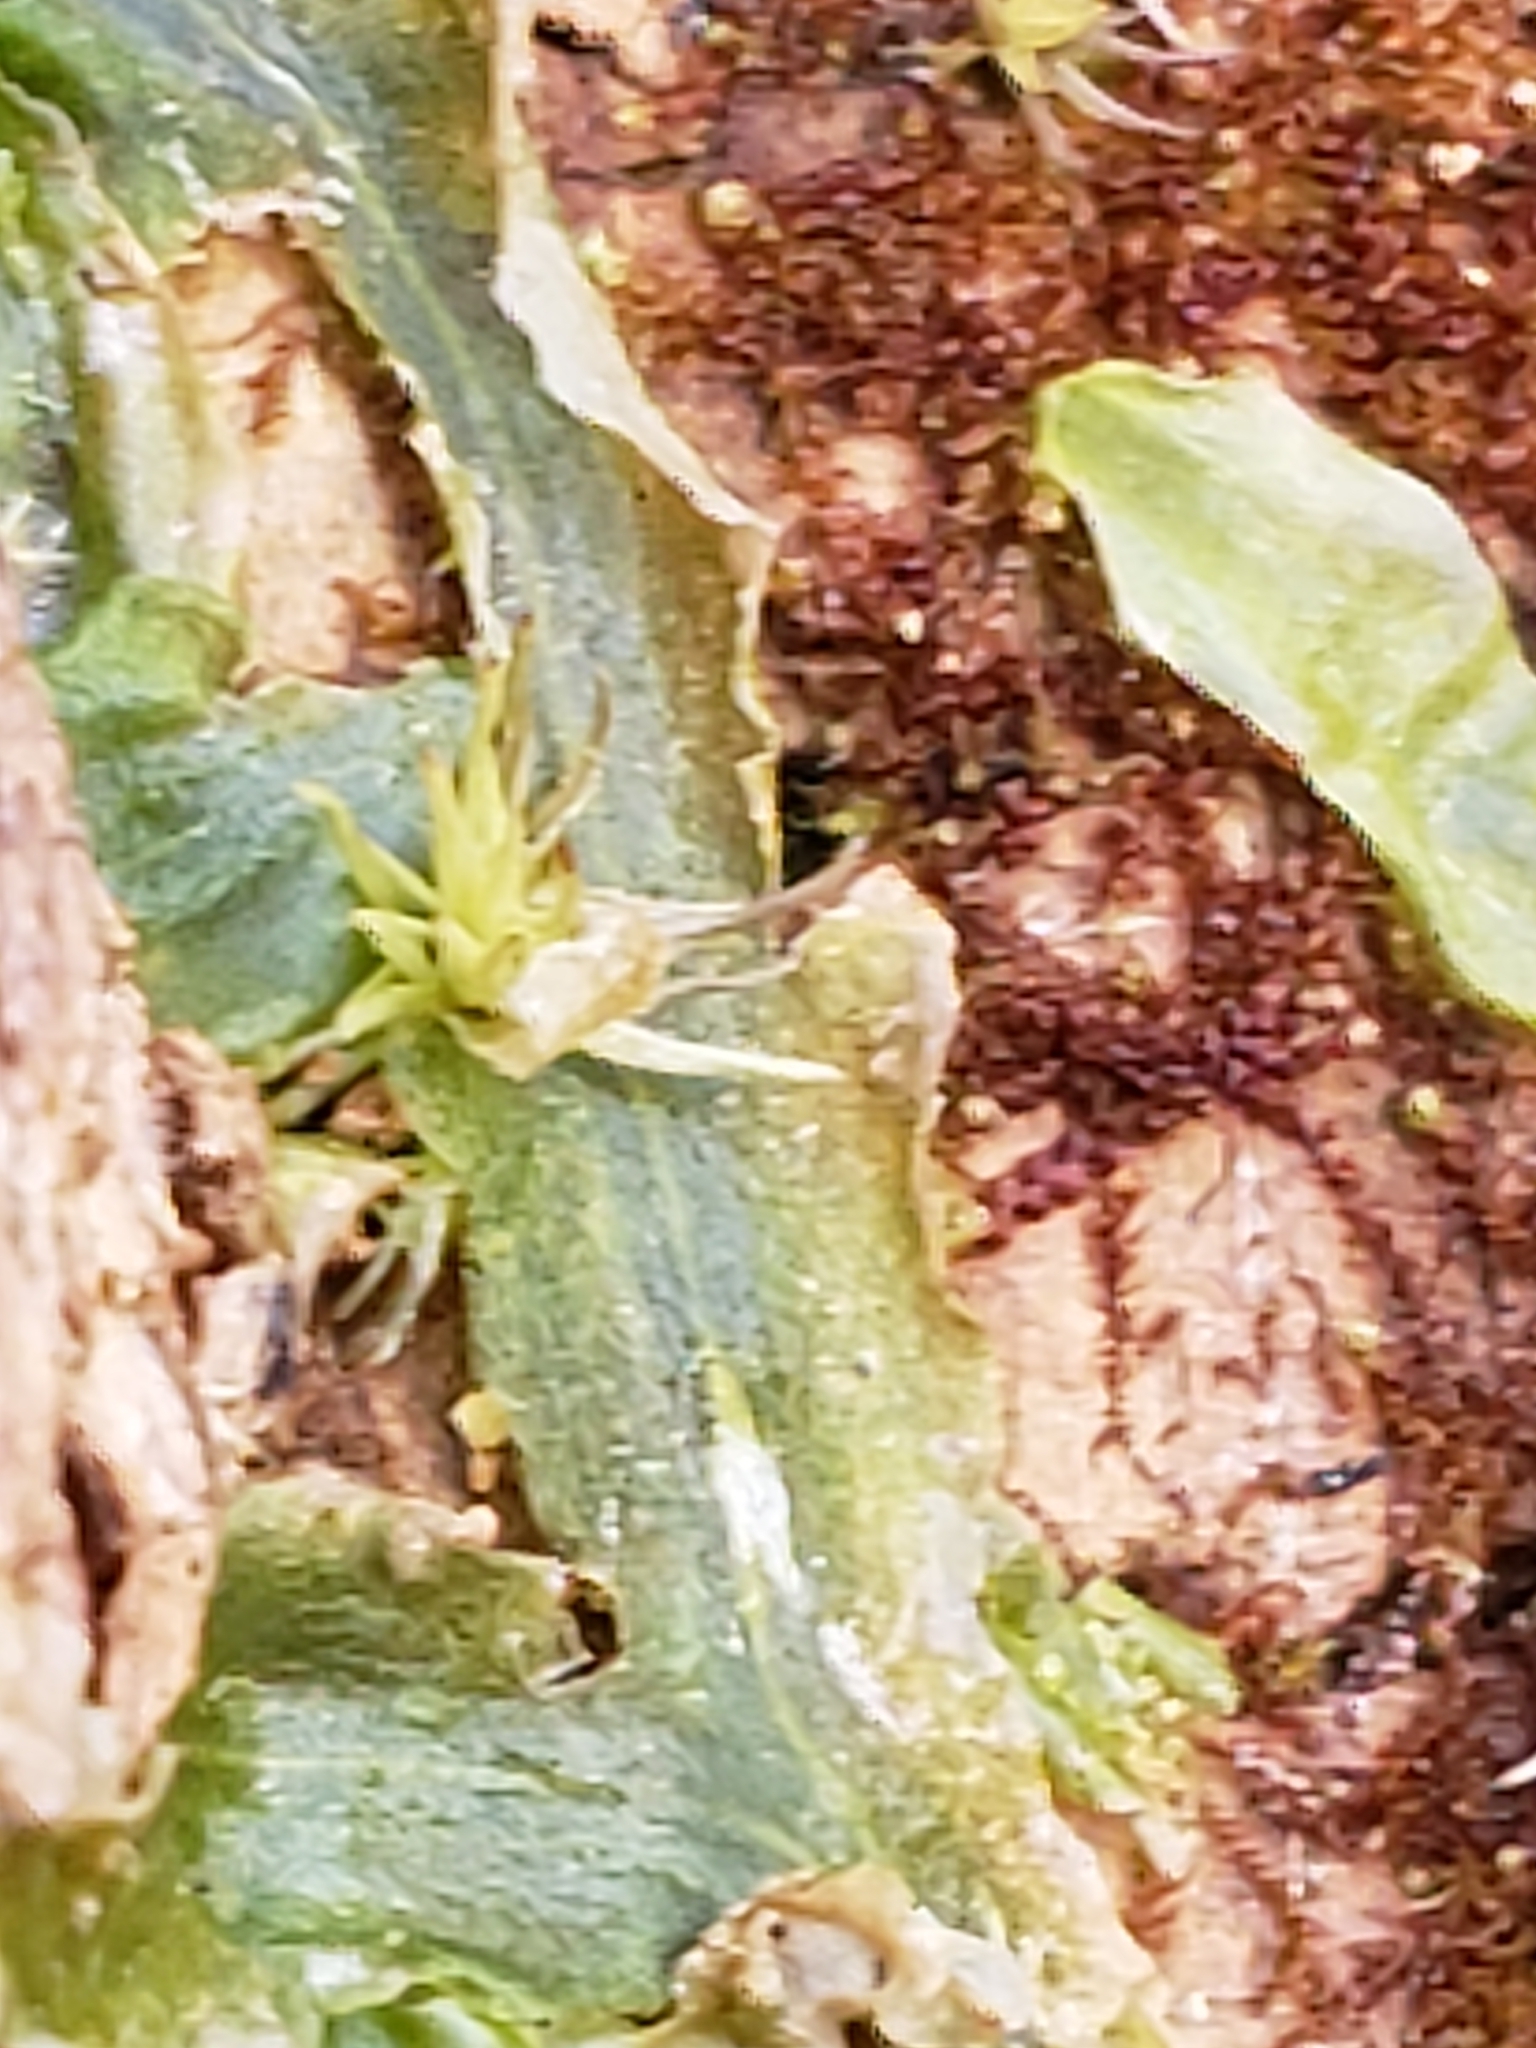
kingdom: Plantae
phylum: Marchantiophyta
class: Jungermanniopsida
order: Pallaviciniales
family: Pallaviciniaceae
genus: Pallavicinia
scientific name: Pallavicinia lyellii
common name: Veilwort
